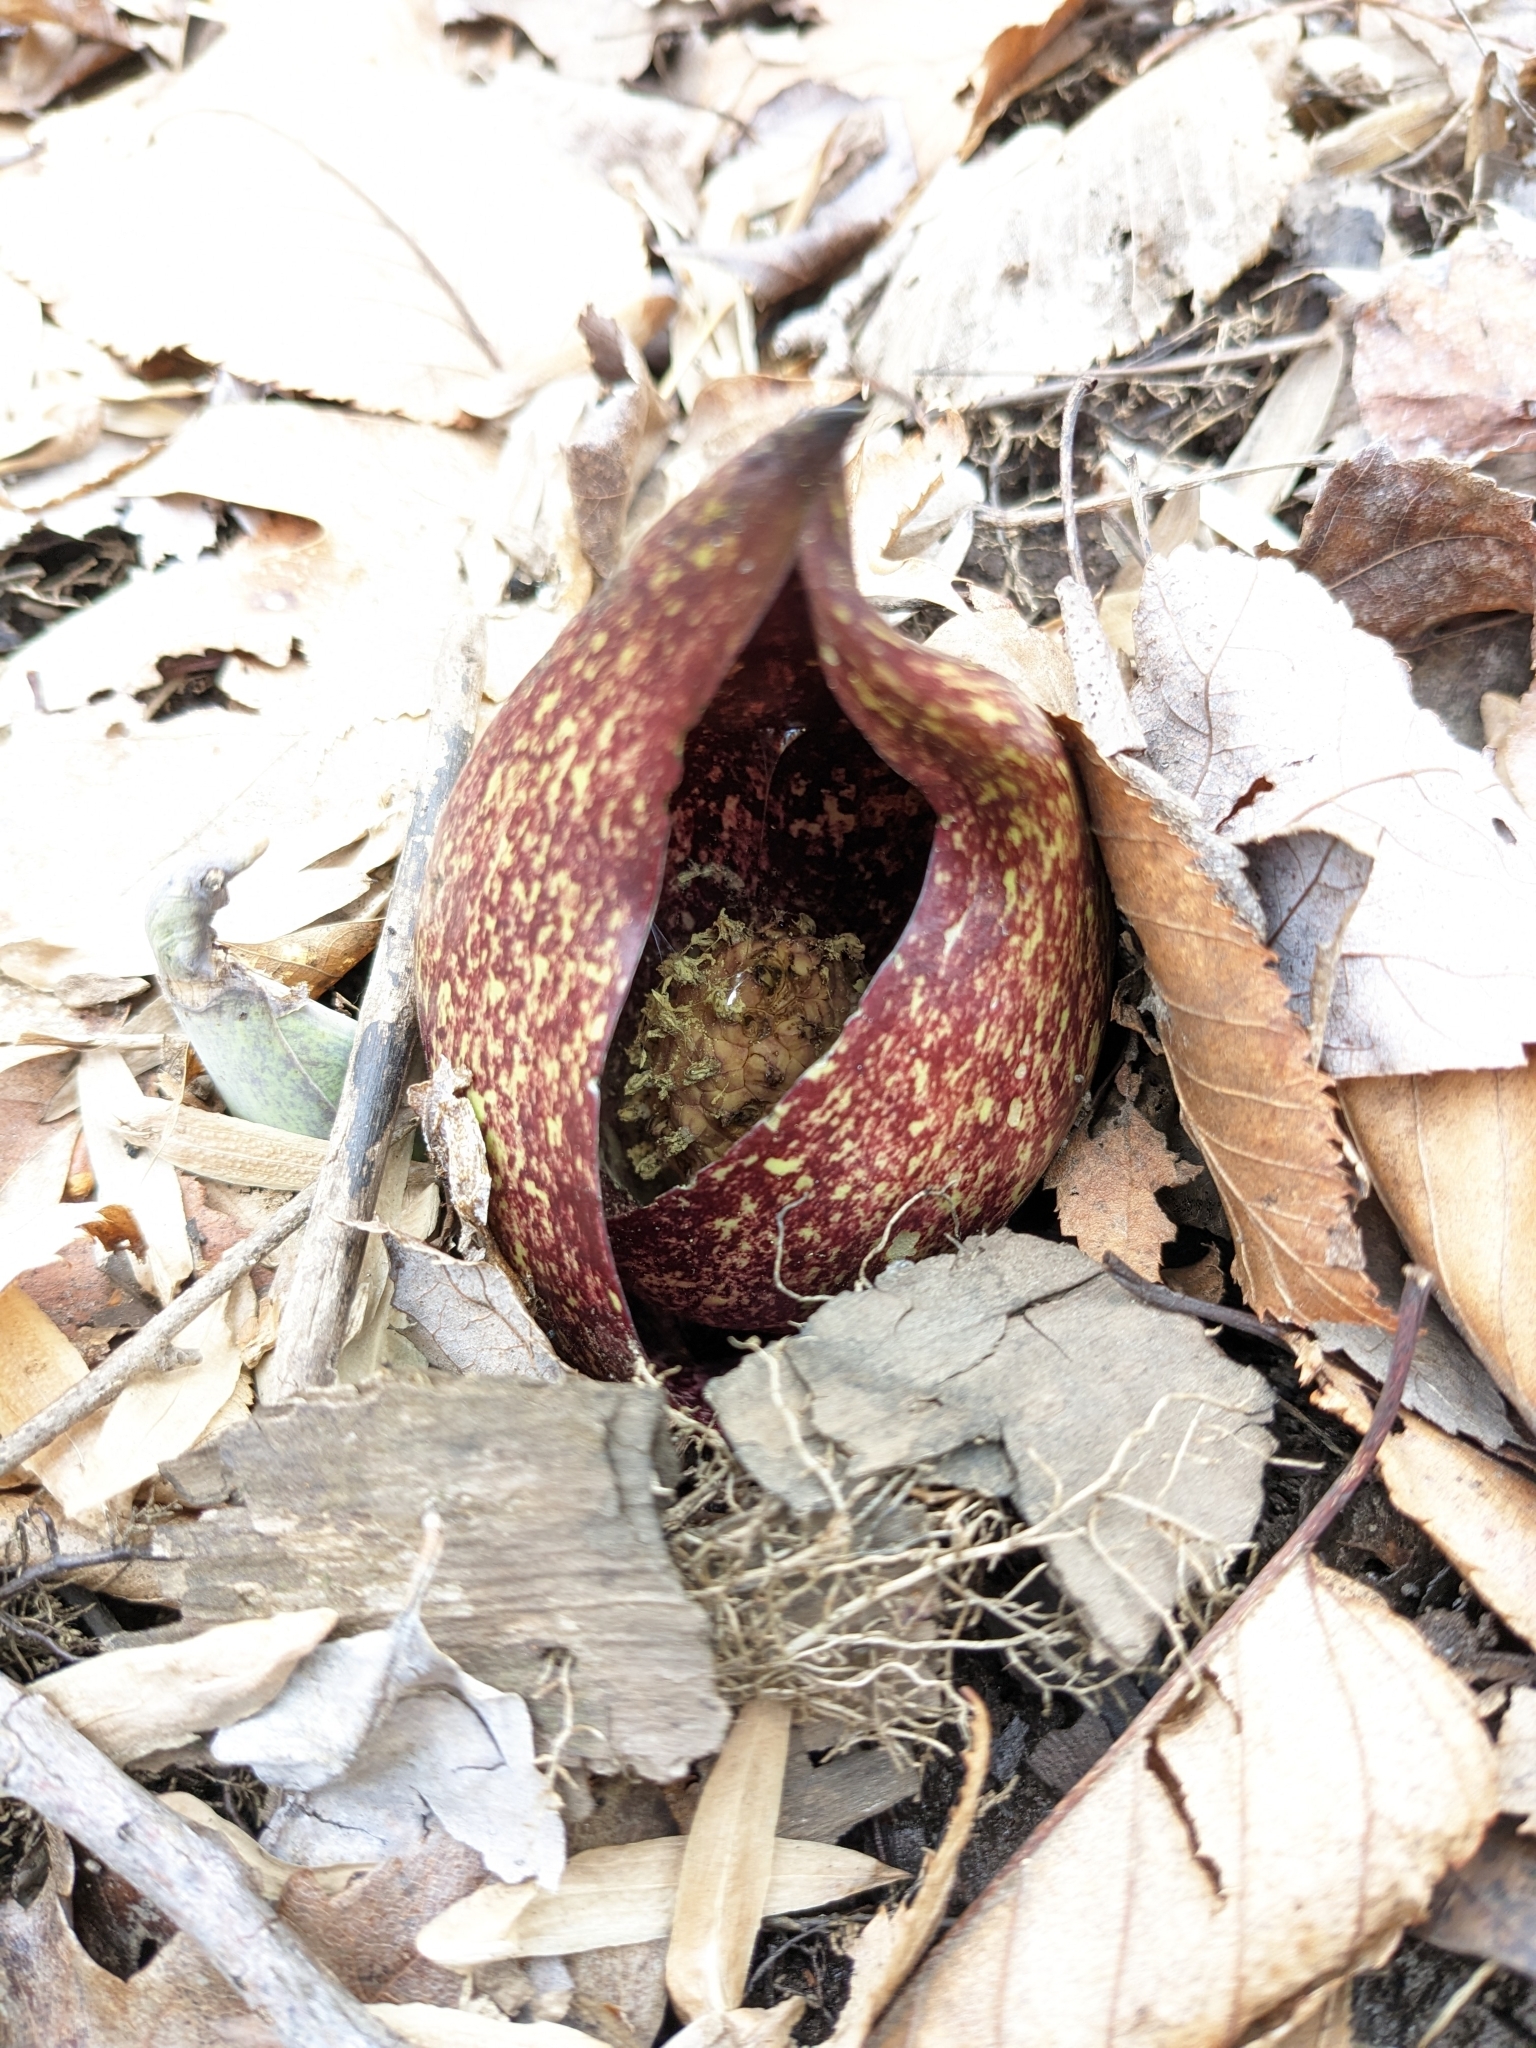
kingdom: Plantae
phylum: Tracheophyta
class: Liliopsida
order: Alismatales
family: Araceae
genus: Symplocarpus
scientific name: Symplocarpus foetidus
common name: Eastern skunk cabbage
